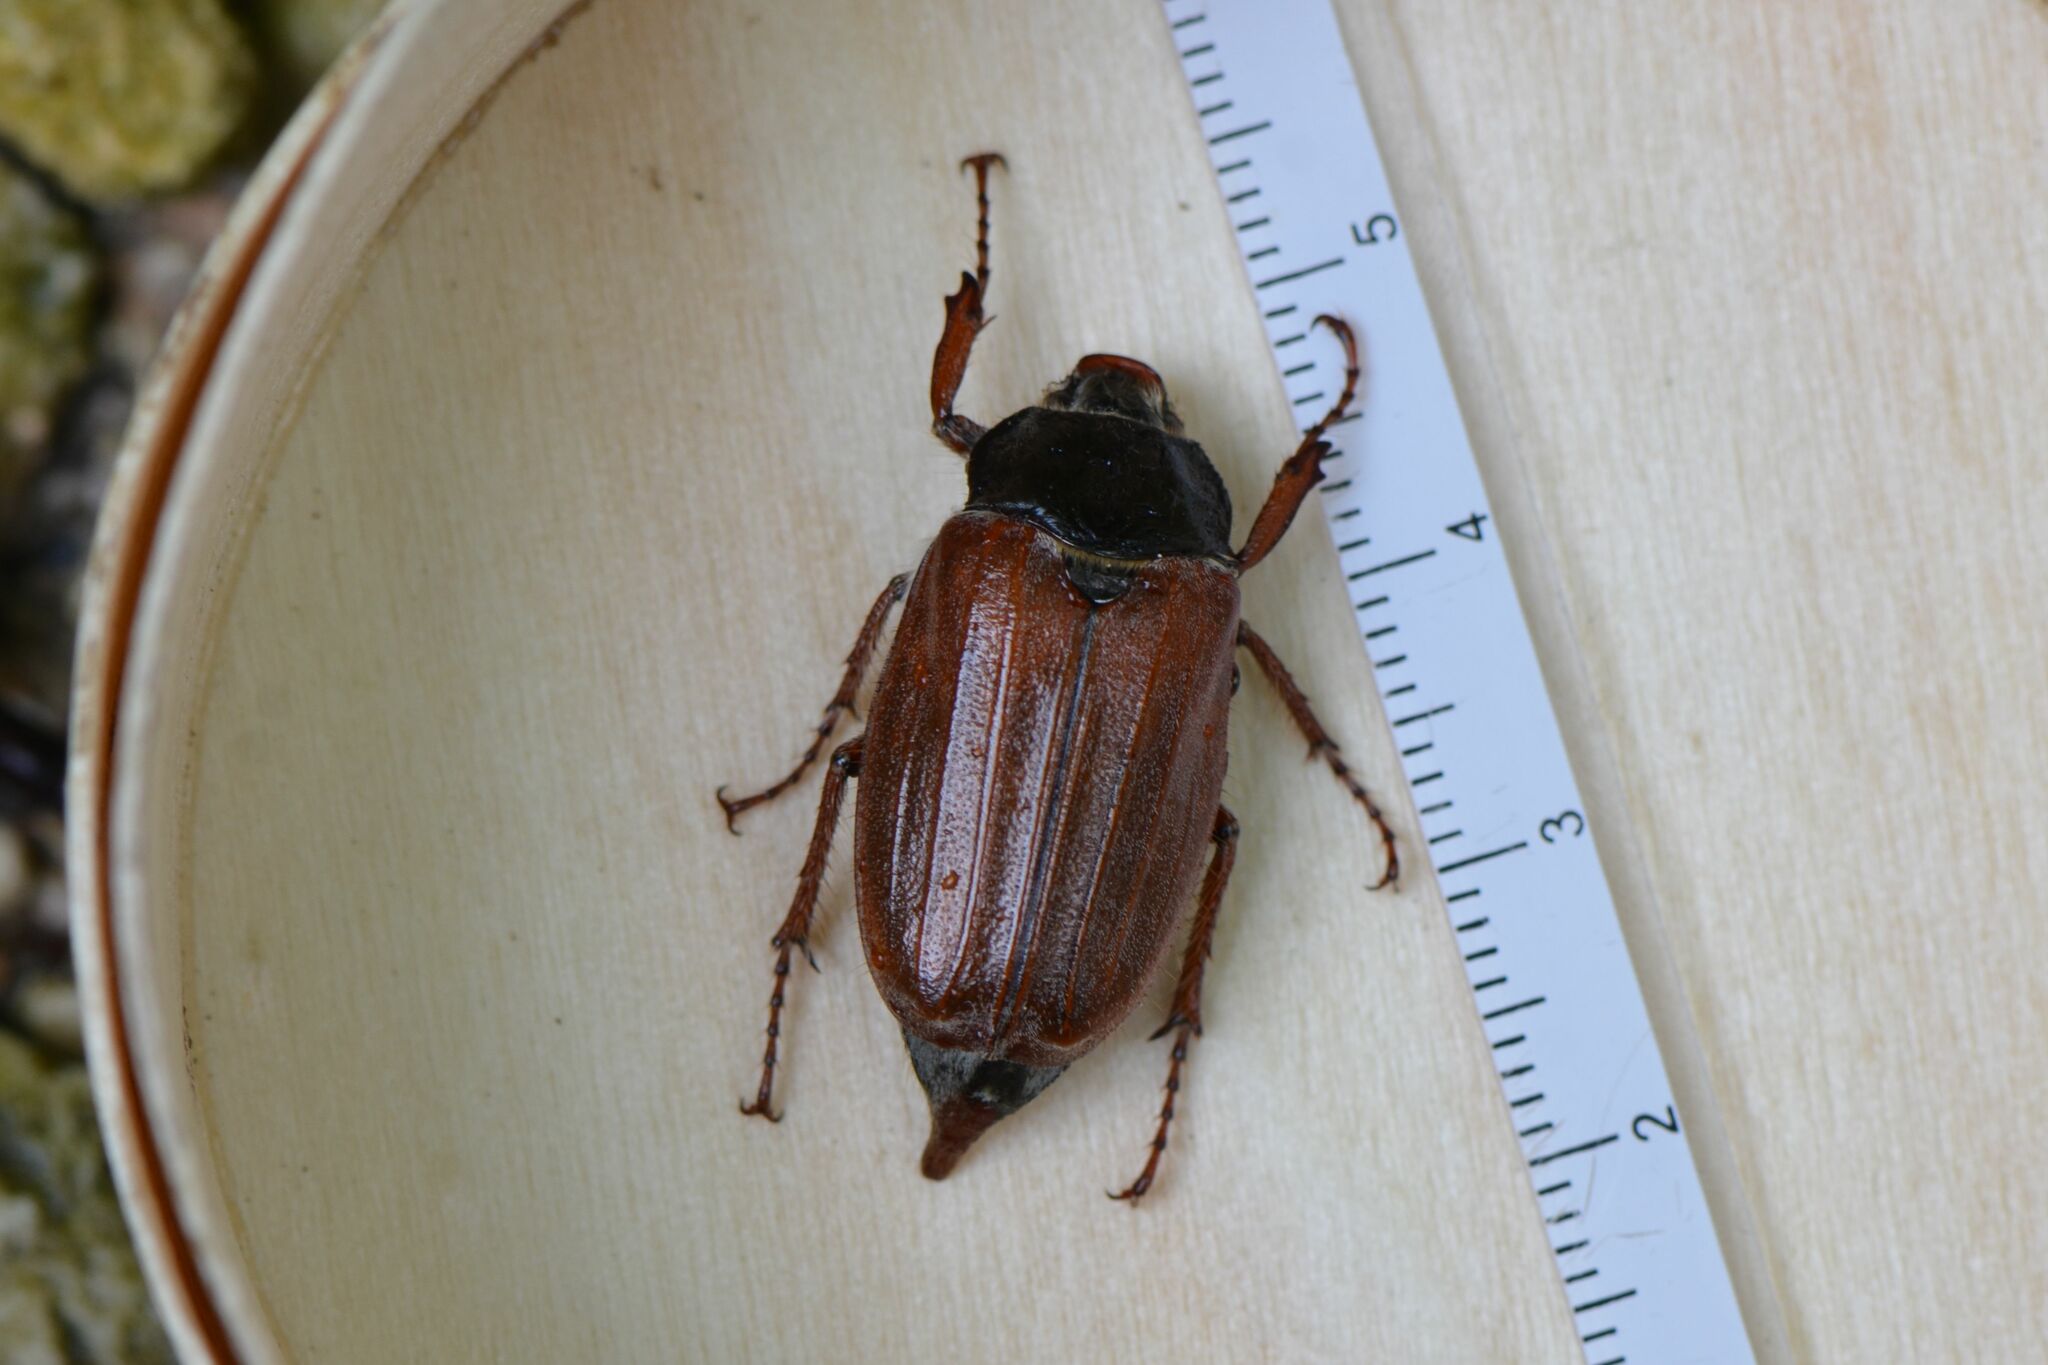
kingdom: Animalia
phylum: Arthropoda
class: Insecta
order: Coleoptera
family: Scarabaeidae
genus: Melolontha
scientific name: Melolontha melolontha
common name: Cockchafer maybeetle
